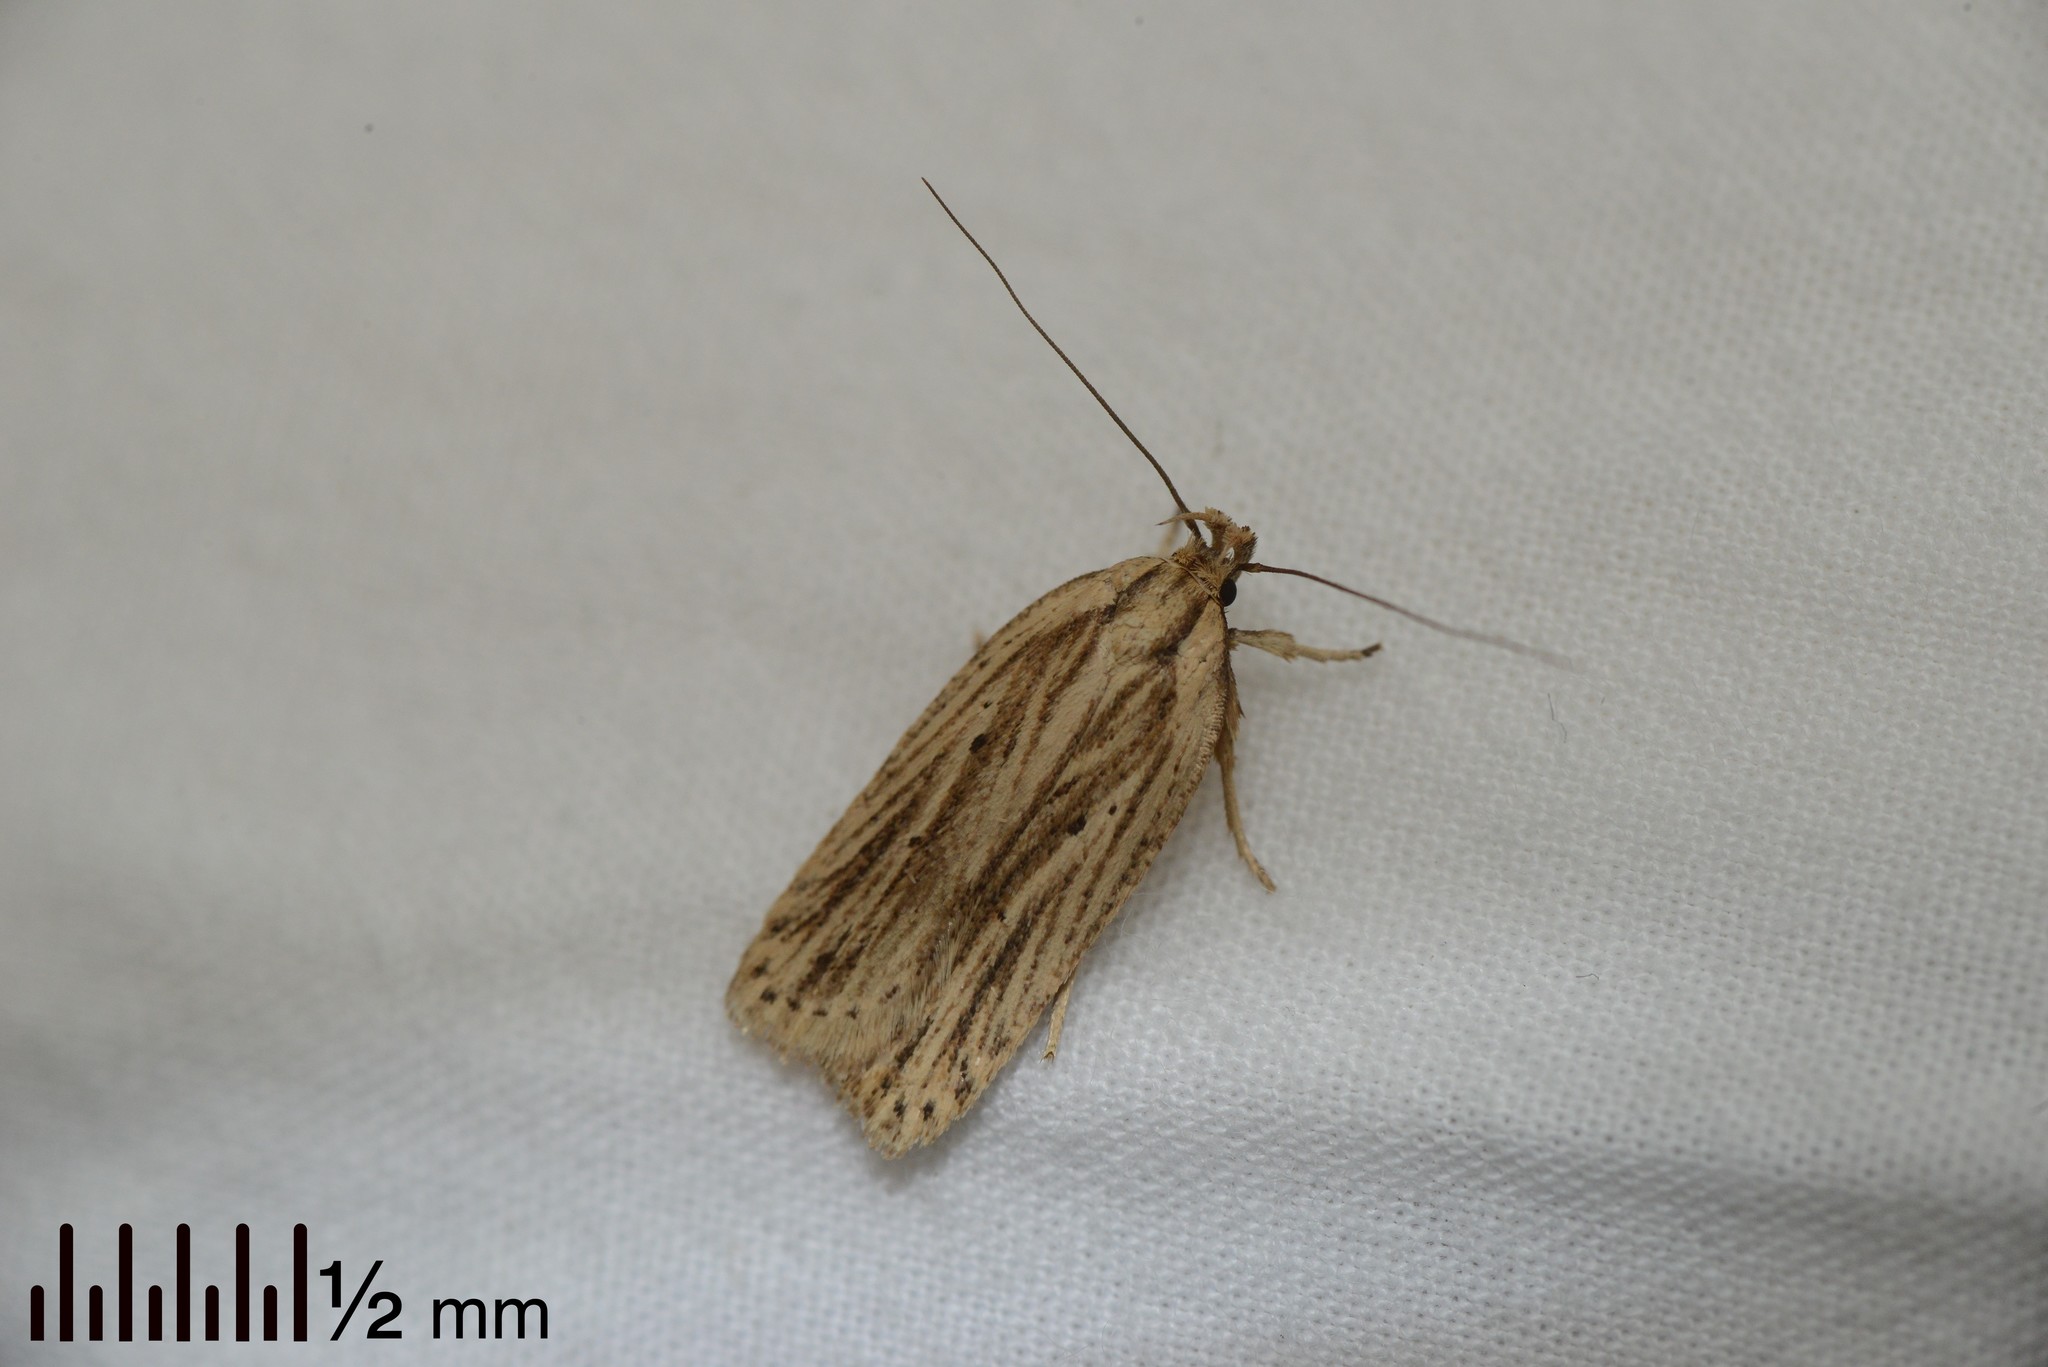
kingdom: Animalia
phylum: Arthropoda
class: Insecta
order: Lepidoptera
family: Depressariidae
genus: Agonopterix
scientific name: Agonopterix
